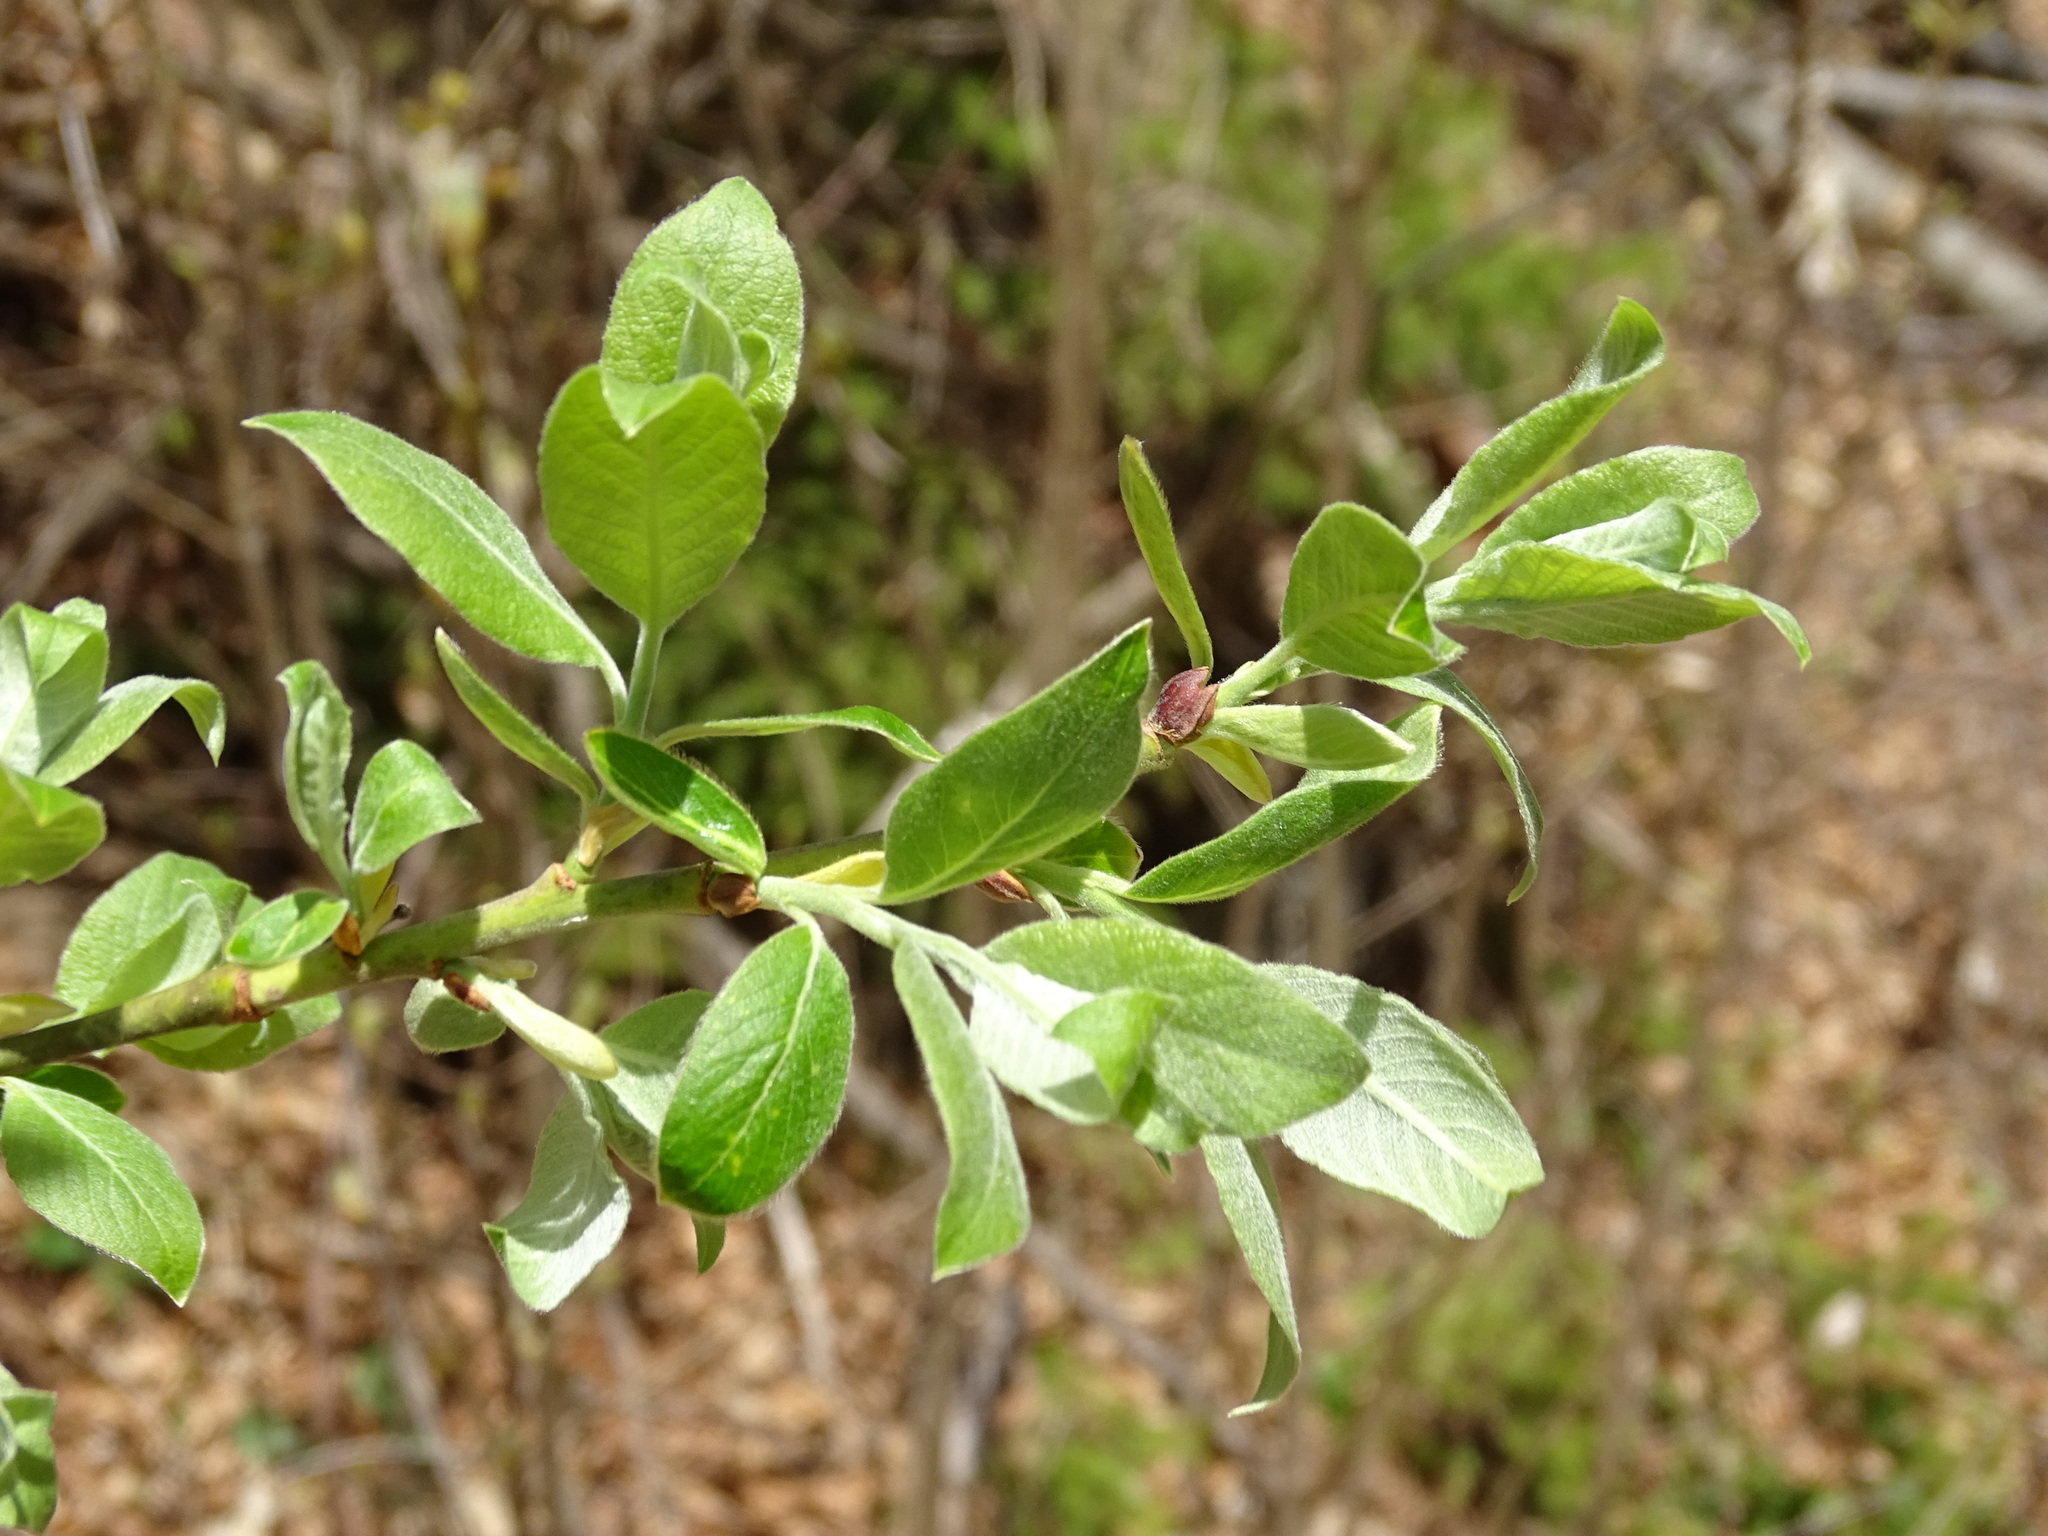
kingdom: Plantae
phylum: Tracheophyta
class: Magnoliopsida
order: Malpighiales
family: Salicaceae
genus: Salix
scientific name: Salix appendiculata
